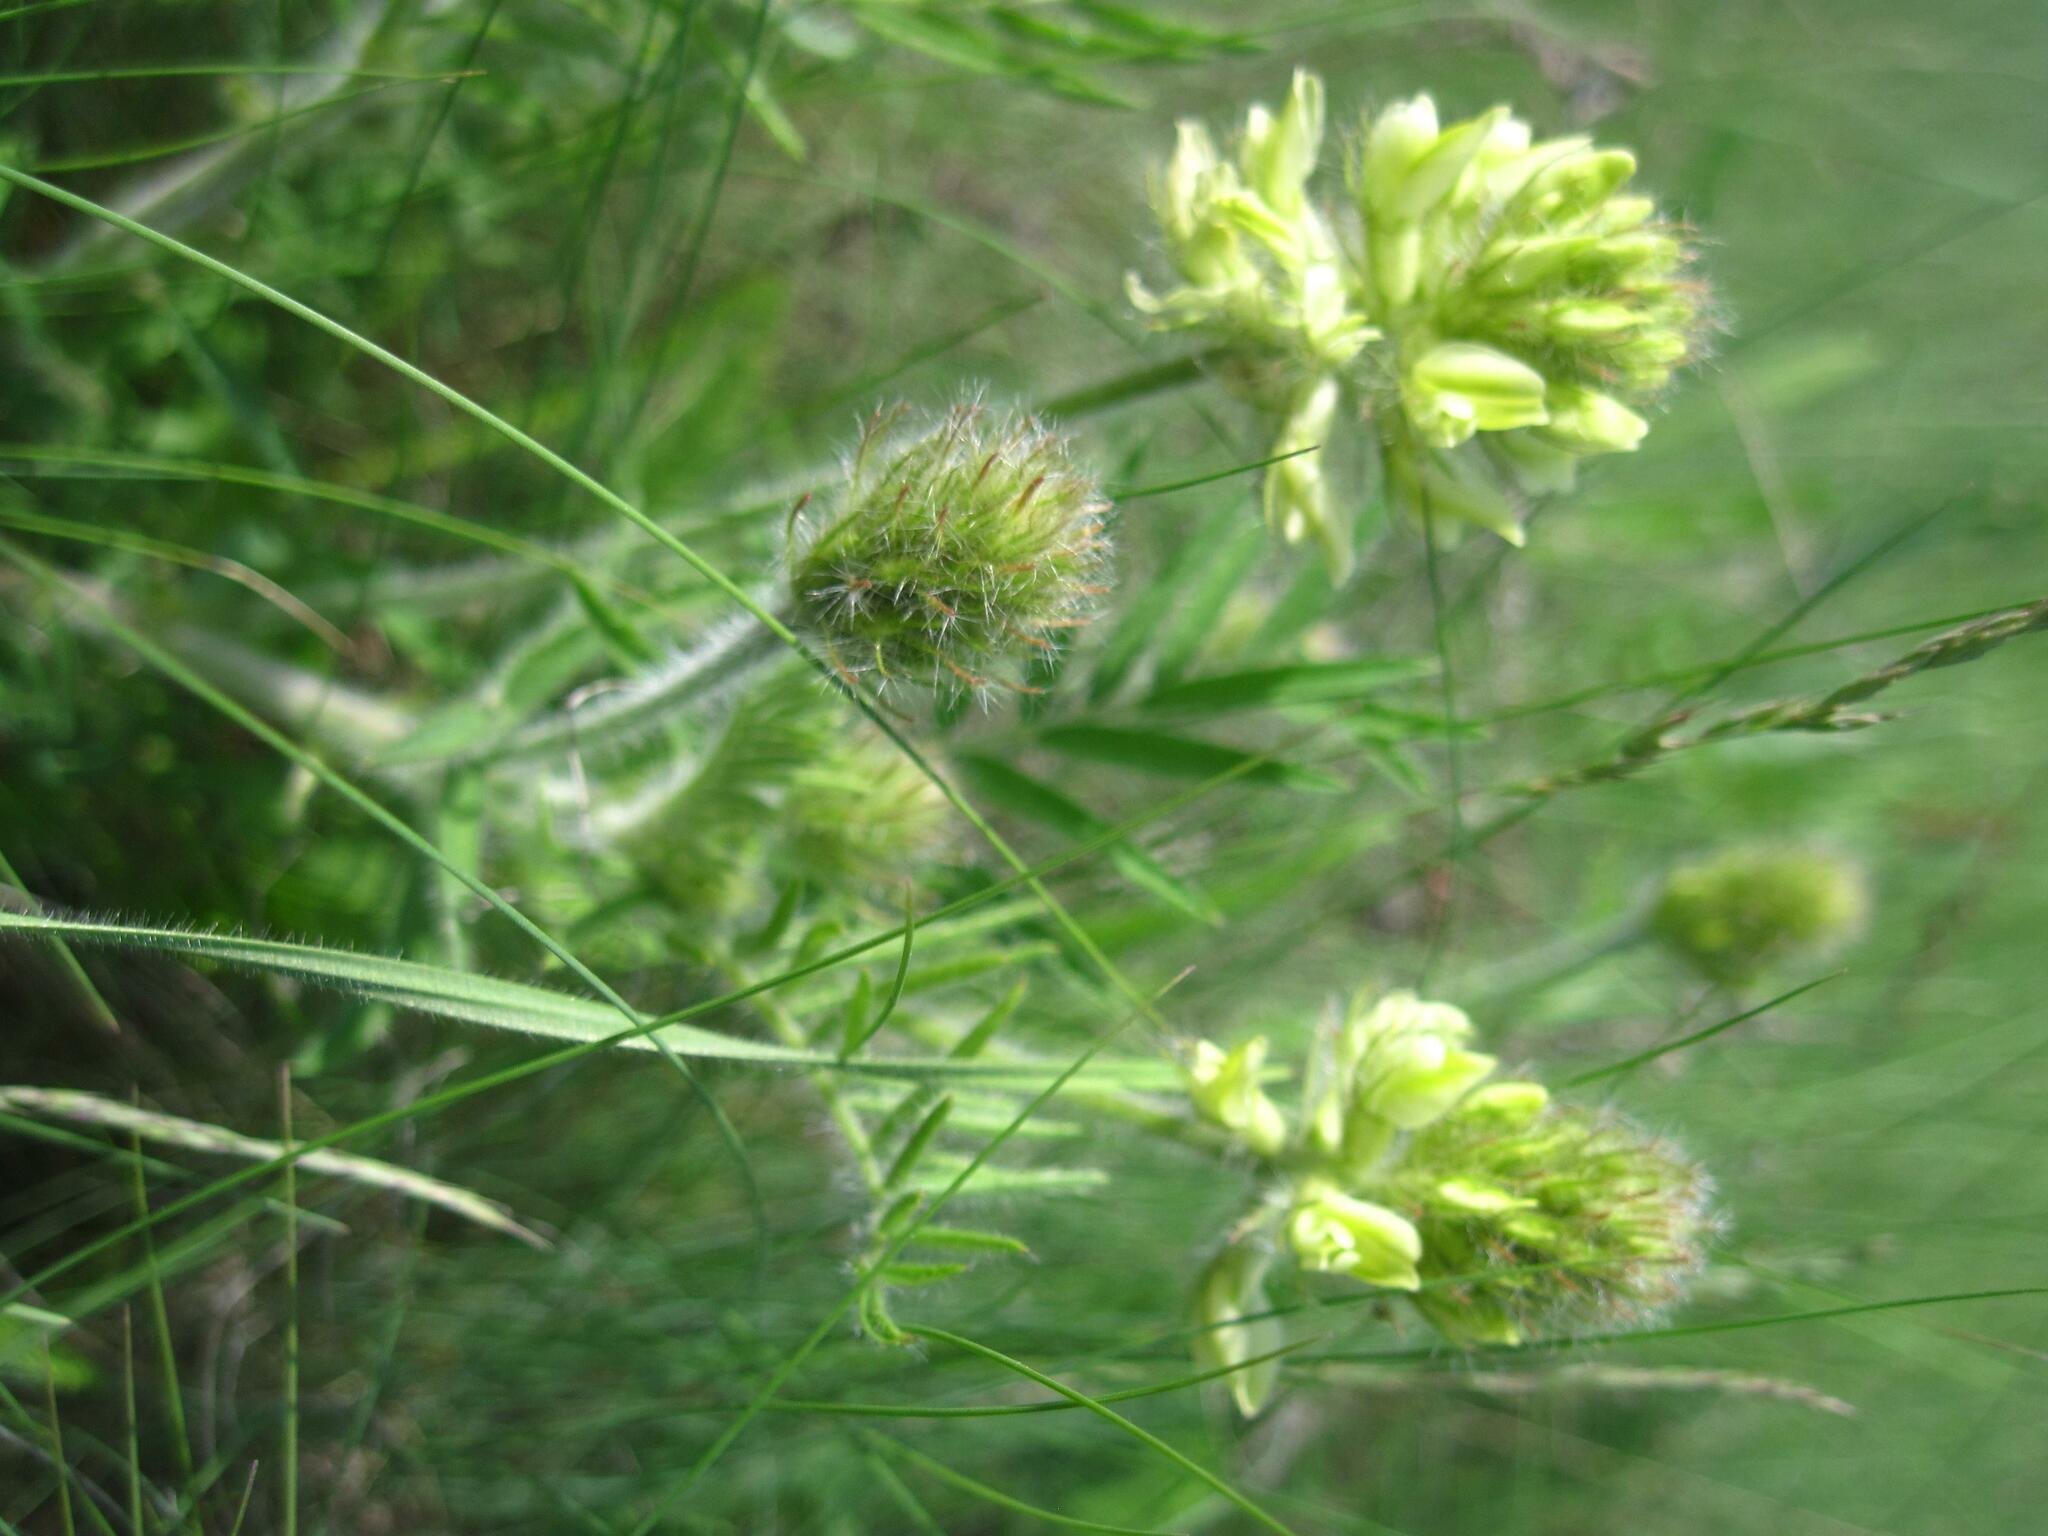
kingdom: Plantae
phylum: Tracheophyta
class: Magnoliopsida
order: Fabales
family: Fabaceae
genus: Oxytropis
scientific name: Oxytropis pilosa
